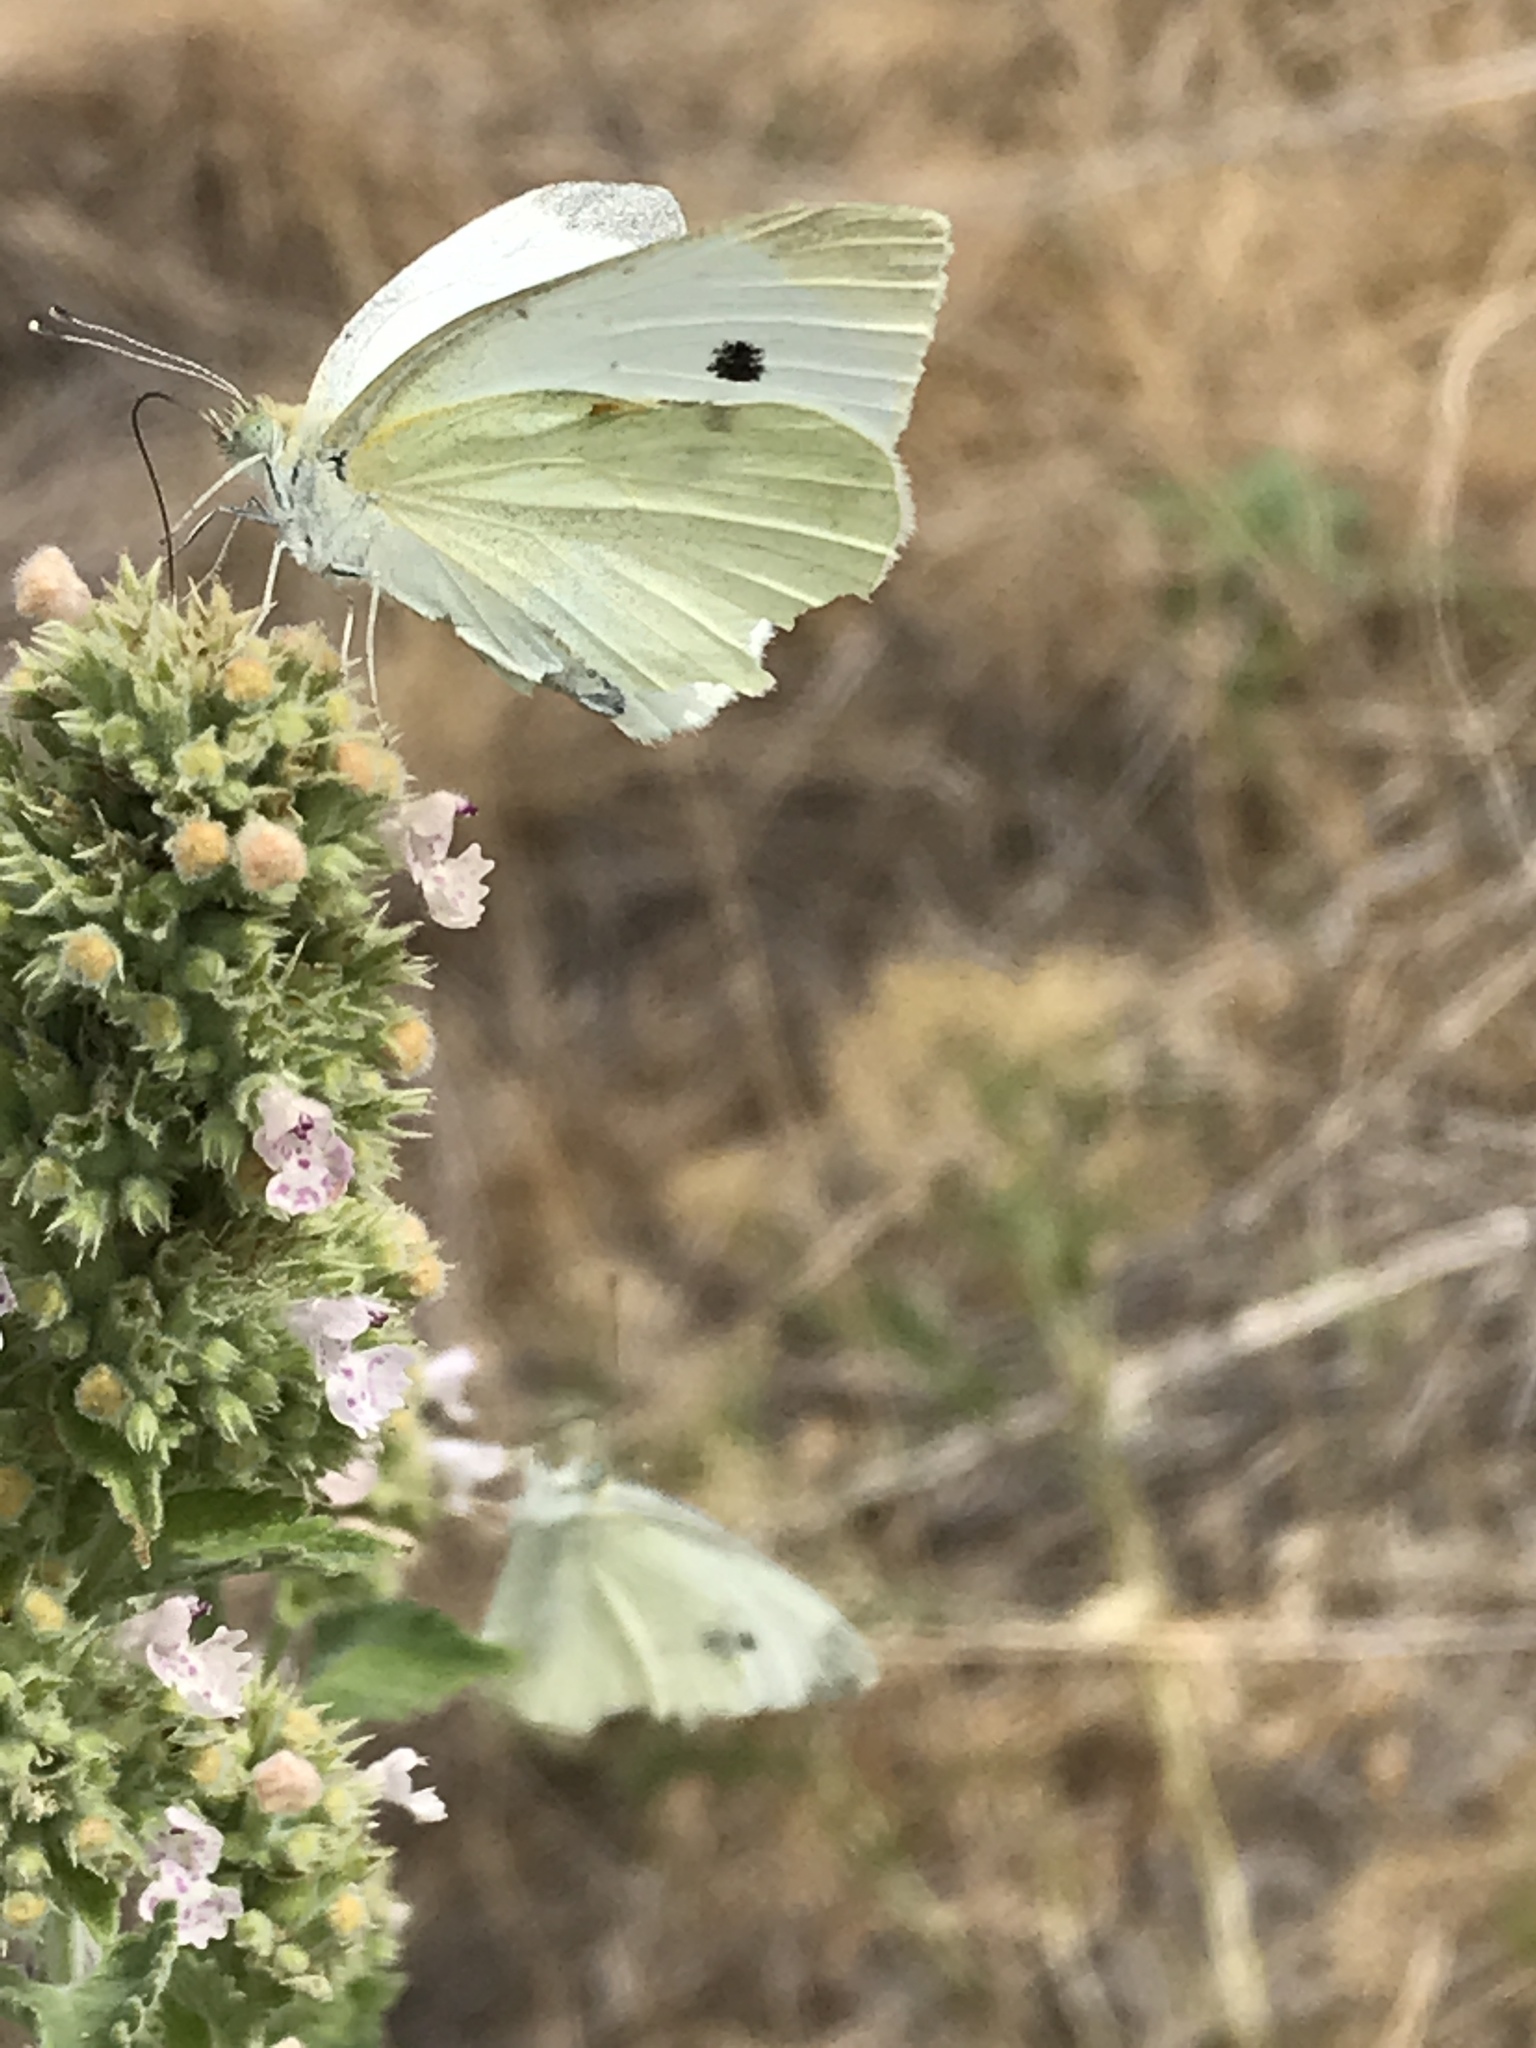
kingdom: Animalia
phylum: Arthropoda
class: Insecta
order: Lepidoptera
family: Pieridae
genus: Pieris
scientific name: Pieris rapae
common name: Small white
